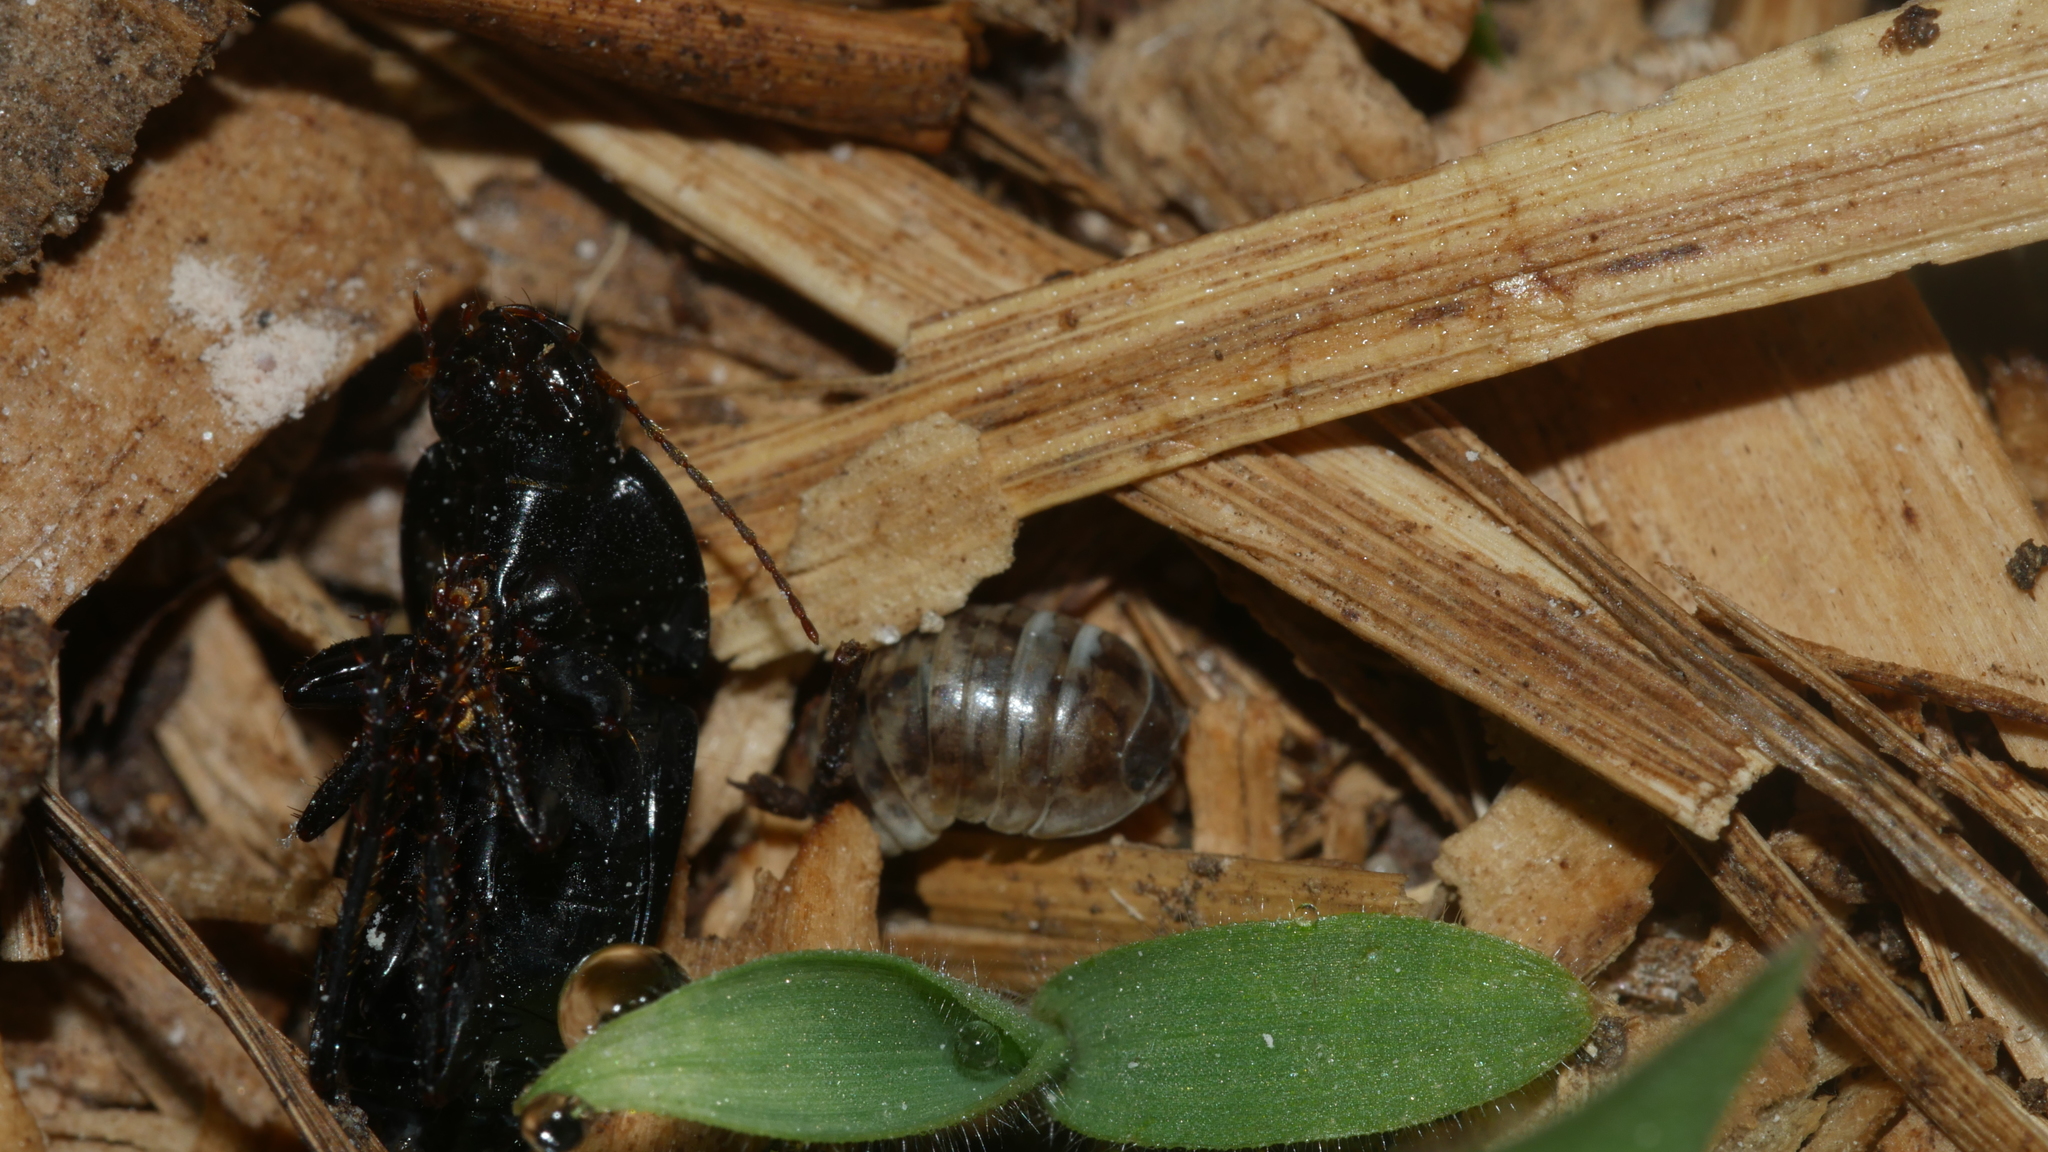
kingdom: Animalia
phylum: Arthropoda
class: Malacostraca
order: Isopoda
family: Armadillidiidae
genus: Armadillidium
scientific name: Armadillidium vulgare
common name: Common pill woodlouse
